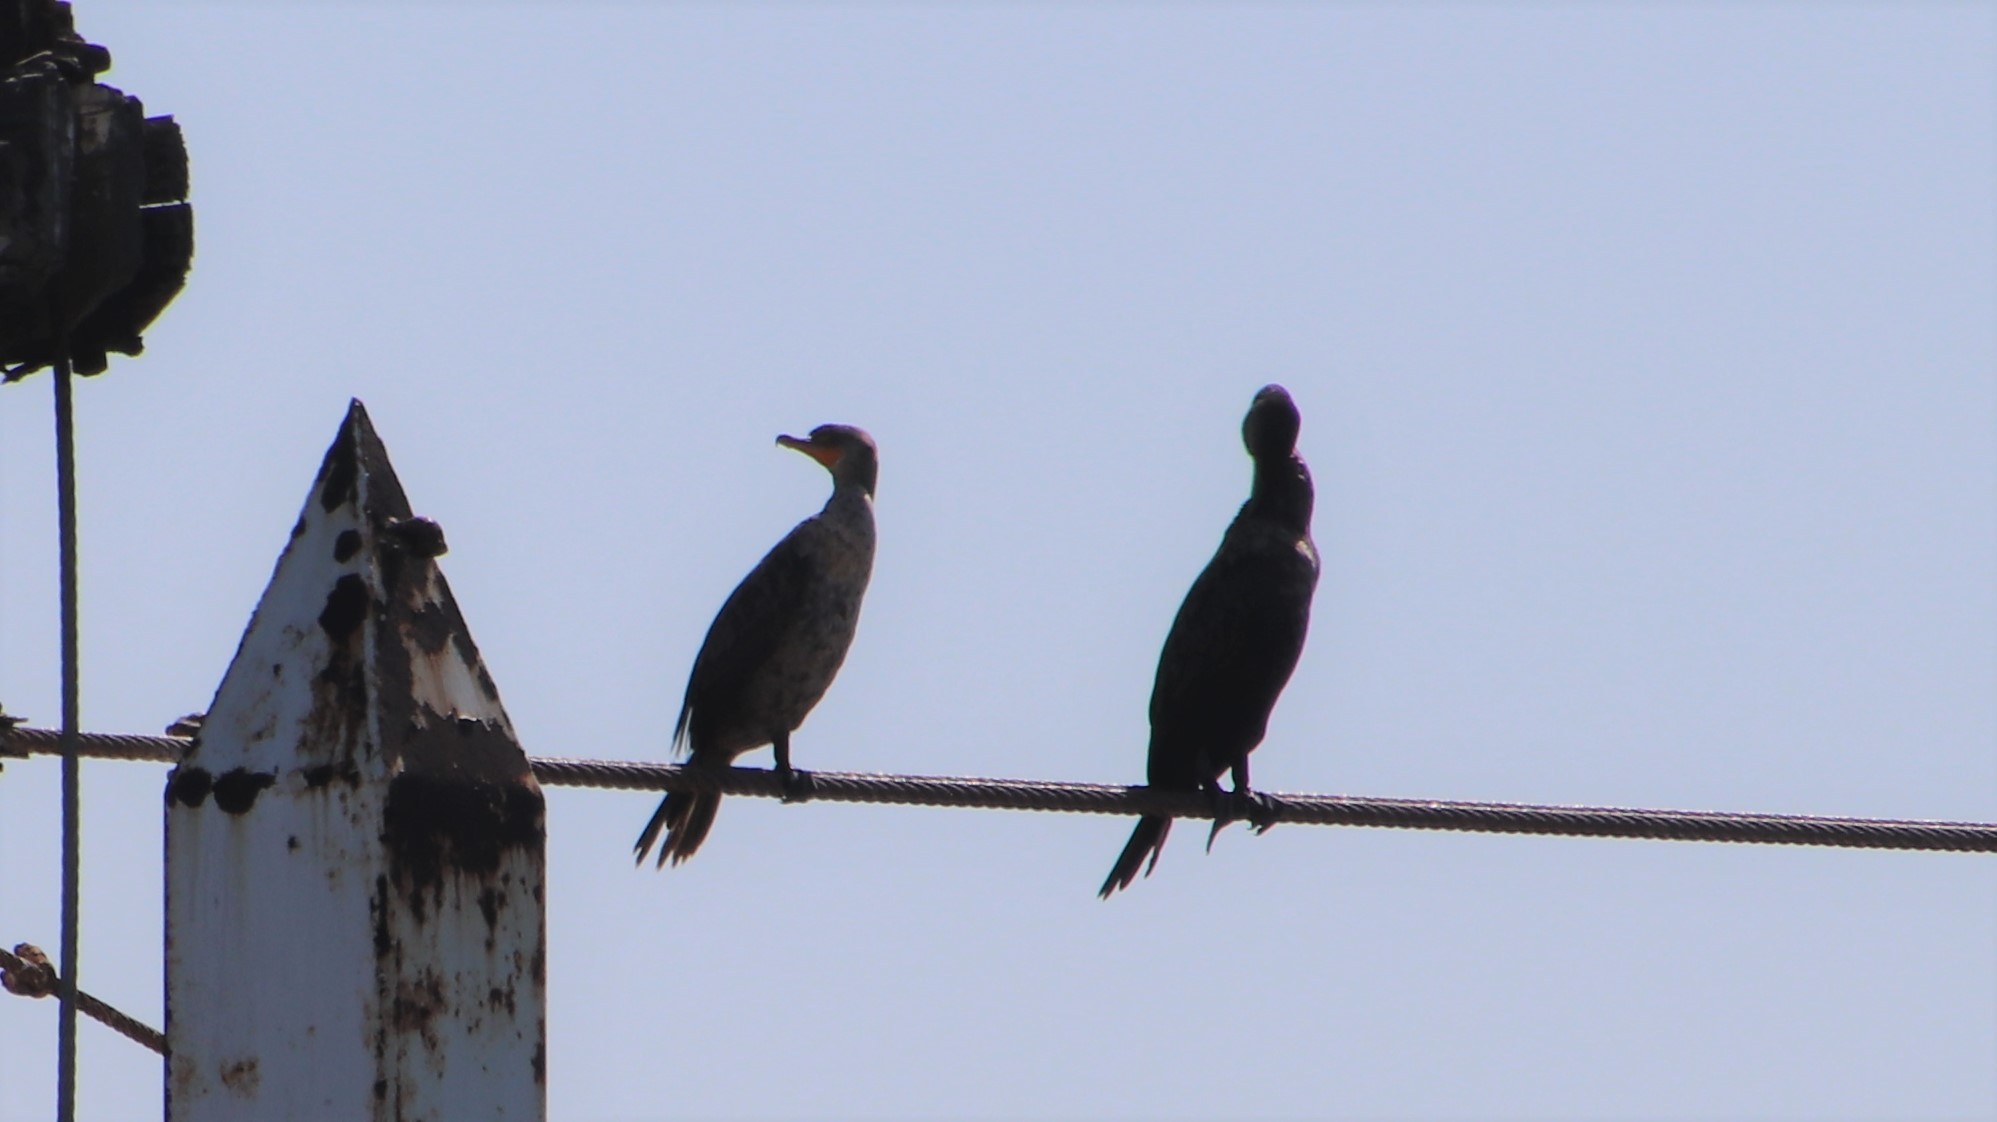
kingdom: Animalia
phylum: Chordata
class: Aves
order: Suliformes
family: Phalacrocoracidae
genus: Phalacrocorax
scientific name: Phalacrocorax auritus
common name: Double-crested cormorant
